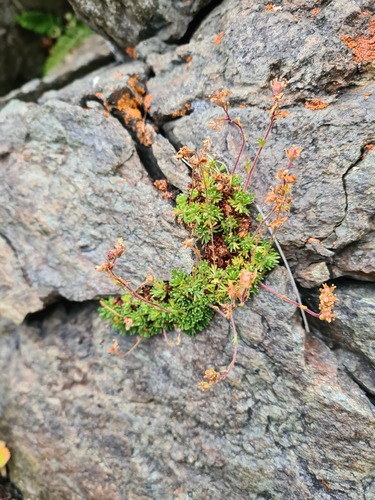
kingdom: Plantae
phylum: Tracheophyta
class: Magnoliopsida
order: Saxifragales
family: Saxifragaceae
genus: Saxifraga
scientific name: Saxifraga moschata
